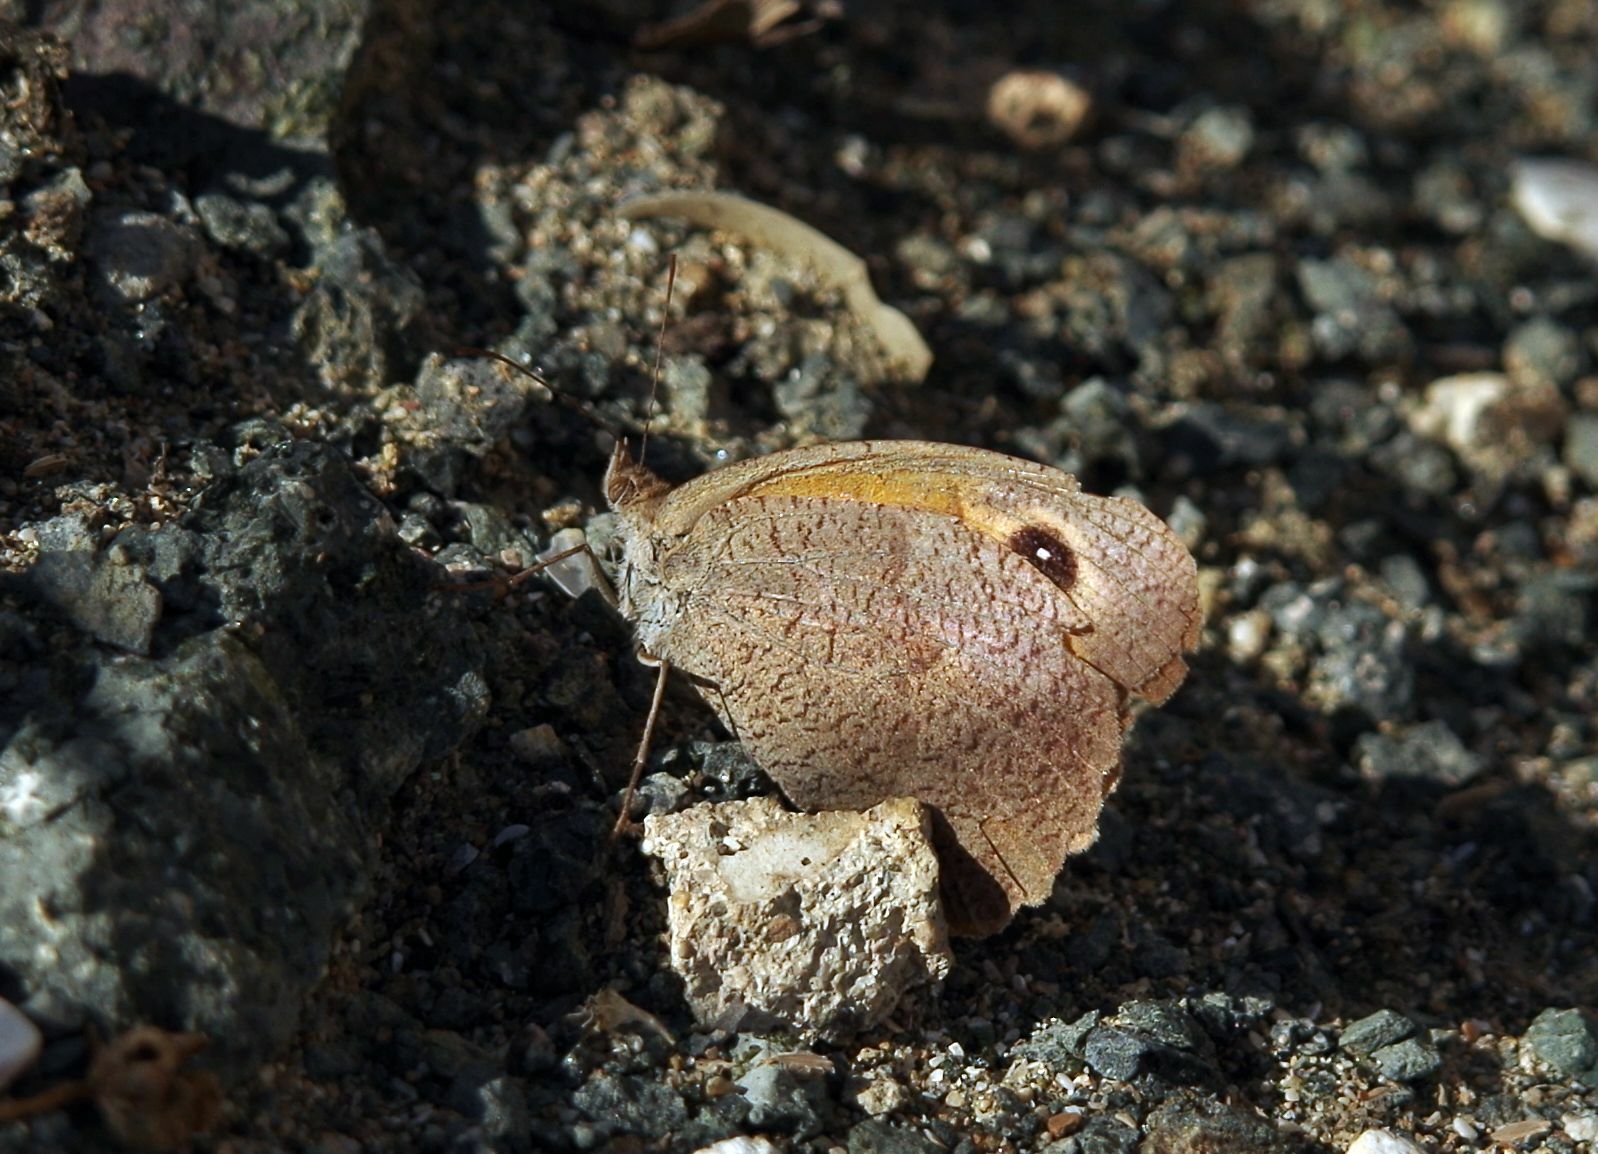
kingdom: Animalia
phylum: Arthropoda
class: Insecta
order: Lepidoptera
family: Nymphalidae
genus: Maniola
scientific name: Maniola jurtina
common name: Meadow brown
